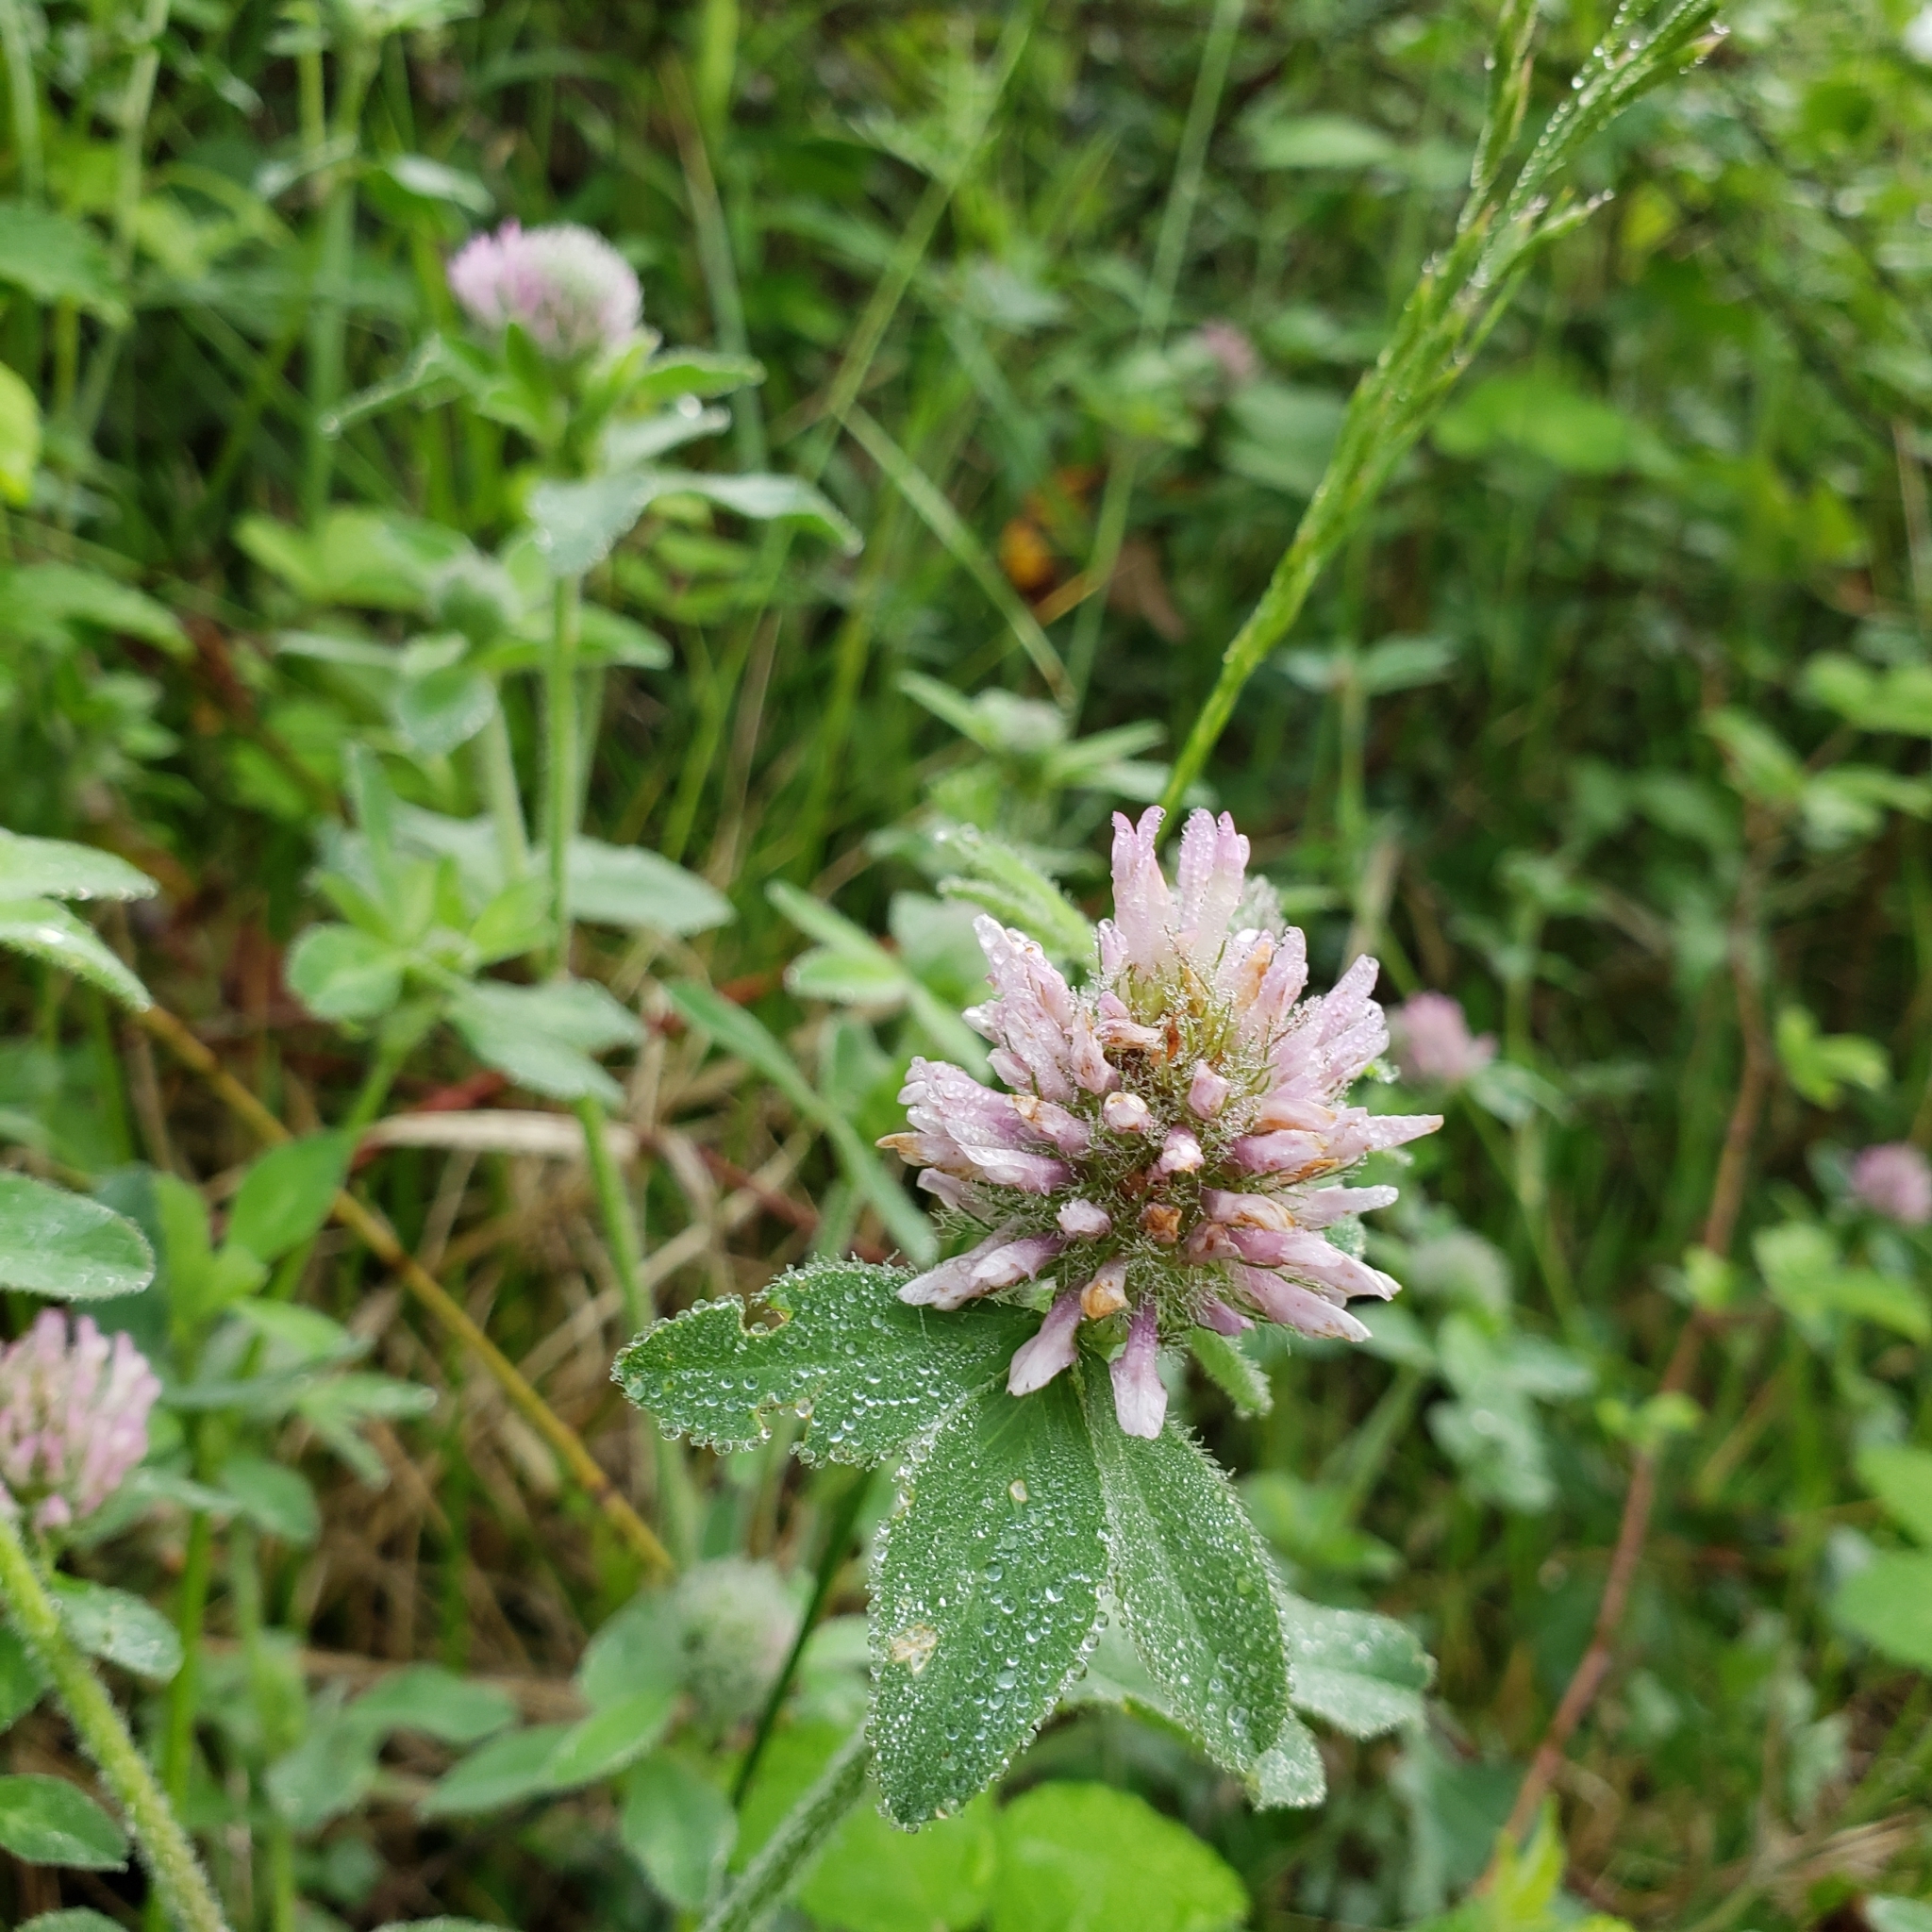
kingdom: Plantae
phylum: Tracheophyta
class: Magnoliopsida
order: Fabales
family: Fabaceae
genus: Trifolium
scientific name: Trifolium pratense
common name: Red clover
